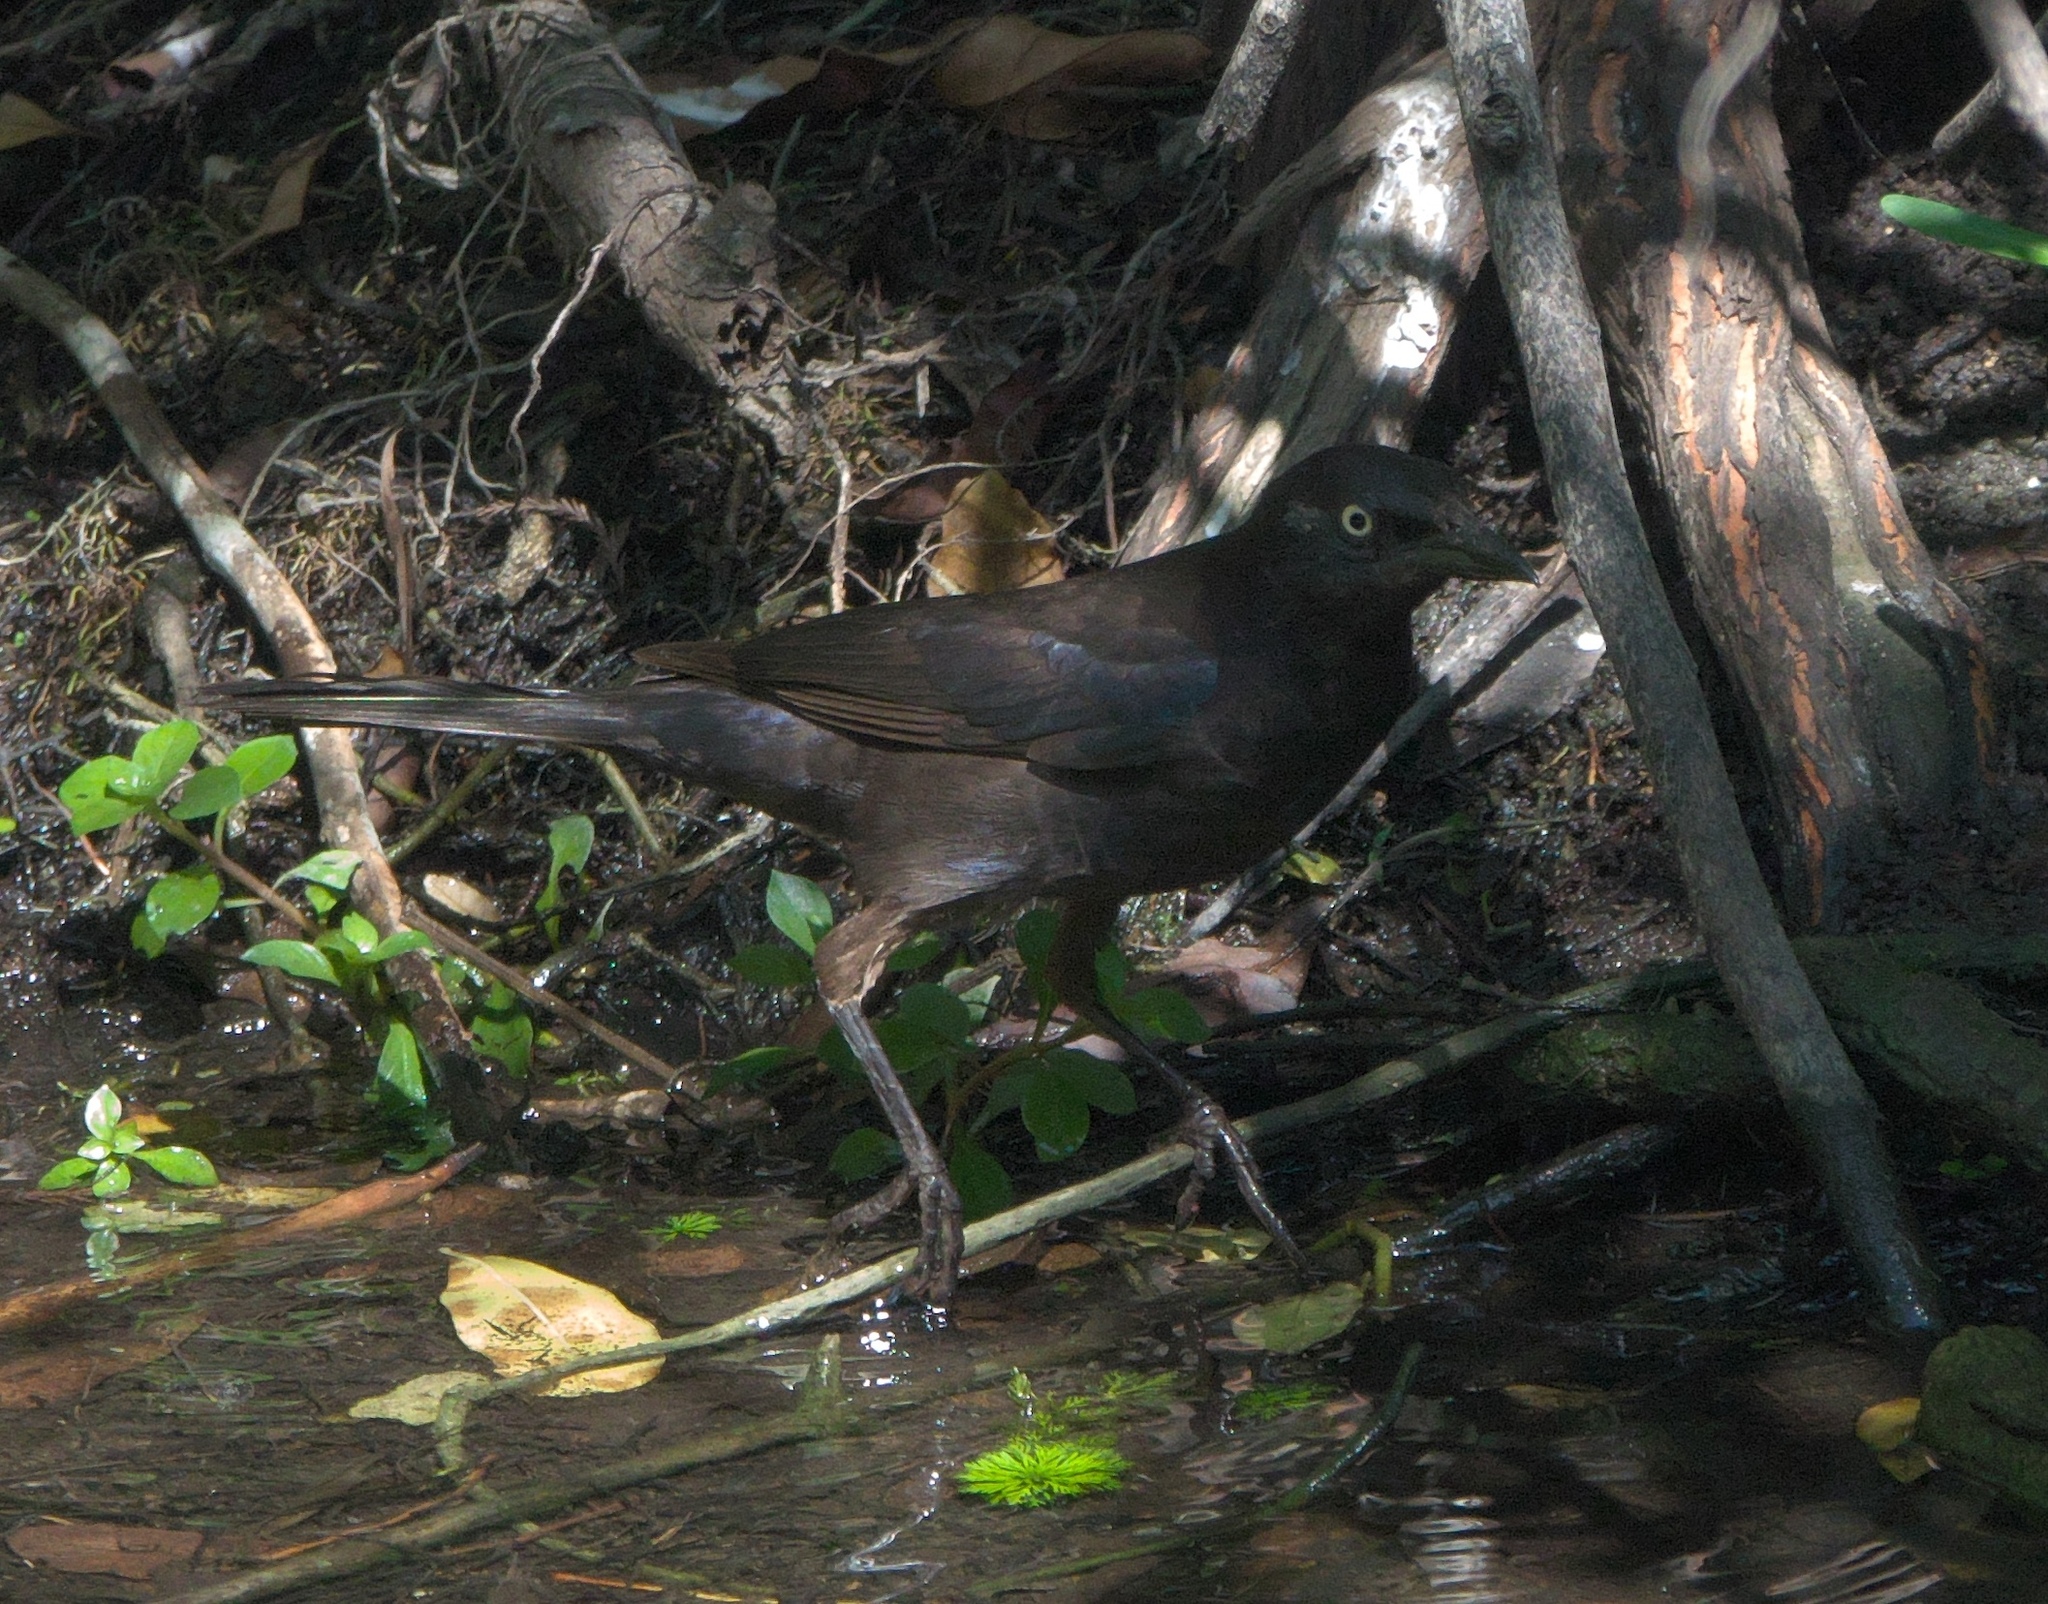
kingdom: Animalia
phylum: Chordata
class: Aves
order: Passeriformes
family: Icteridae
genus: Quiscalus
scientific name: Quiscalus quiscula
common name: Common grackle
